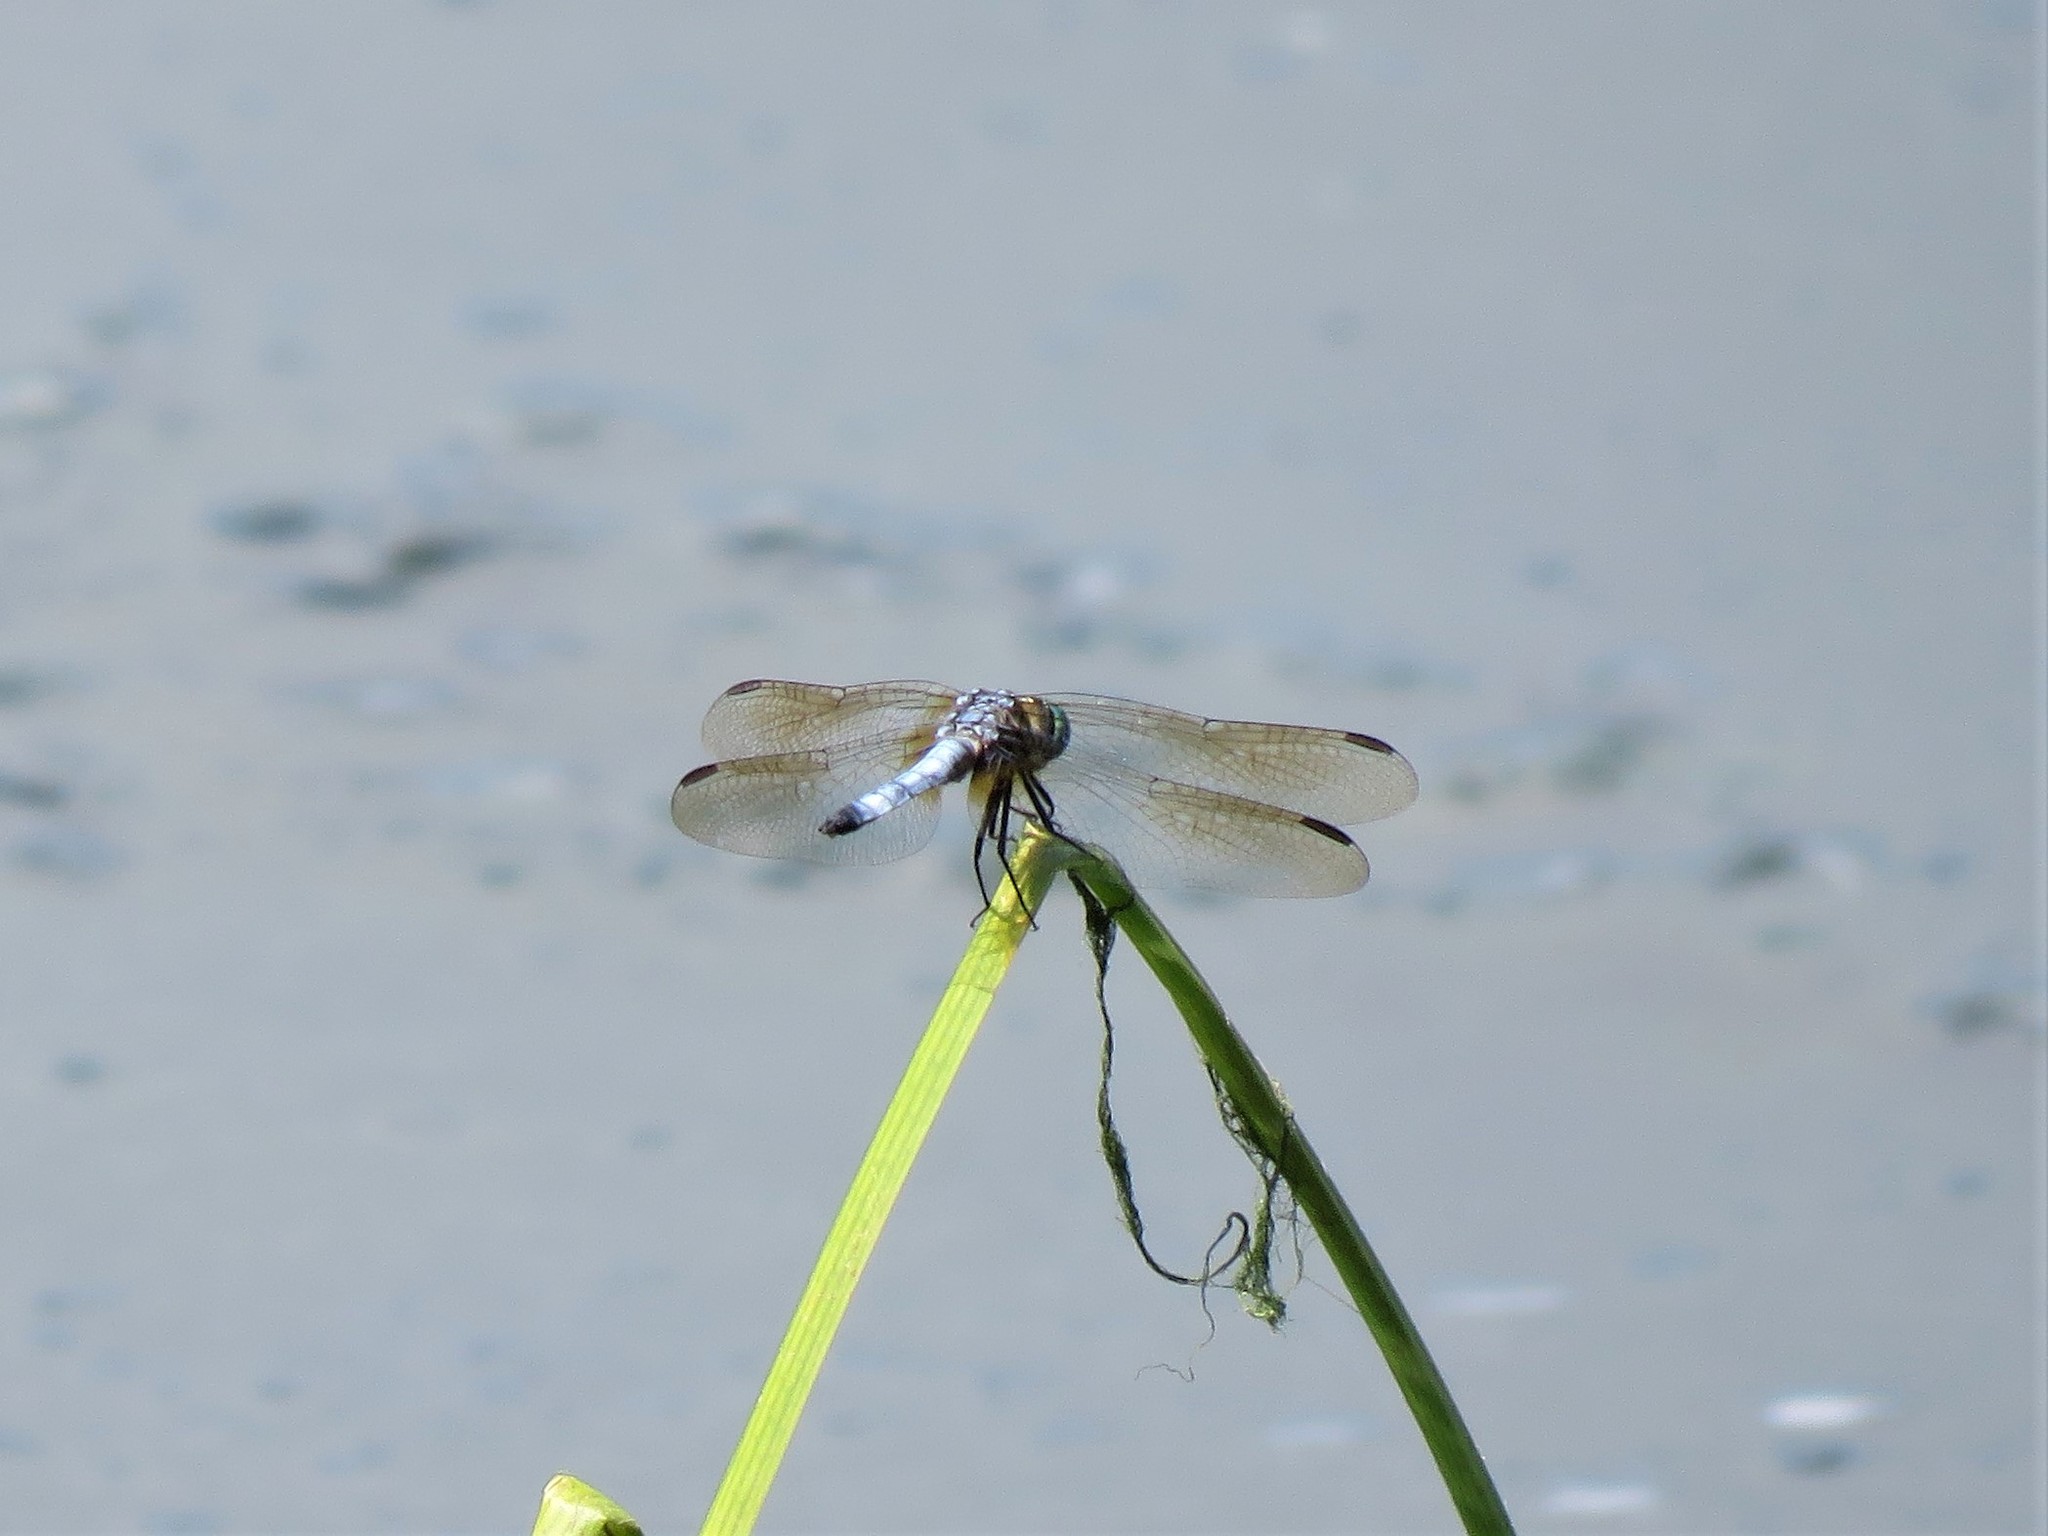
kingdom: Animalia
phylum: Arthropoda
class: Insecta
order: Odonata
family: Libellulidae
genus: Pachydiplax
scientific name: Pachydiplax longipennis
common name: Blue dasher
